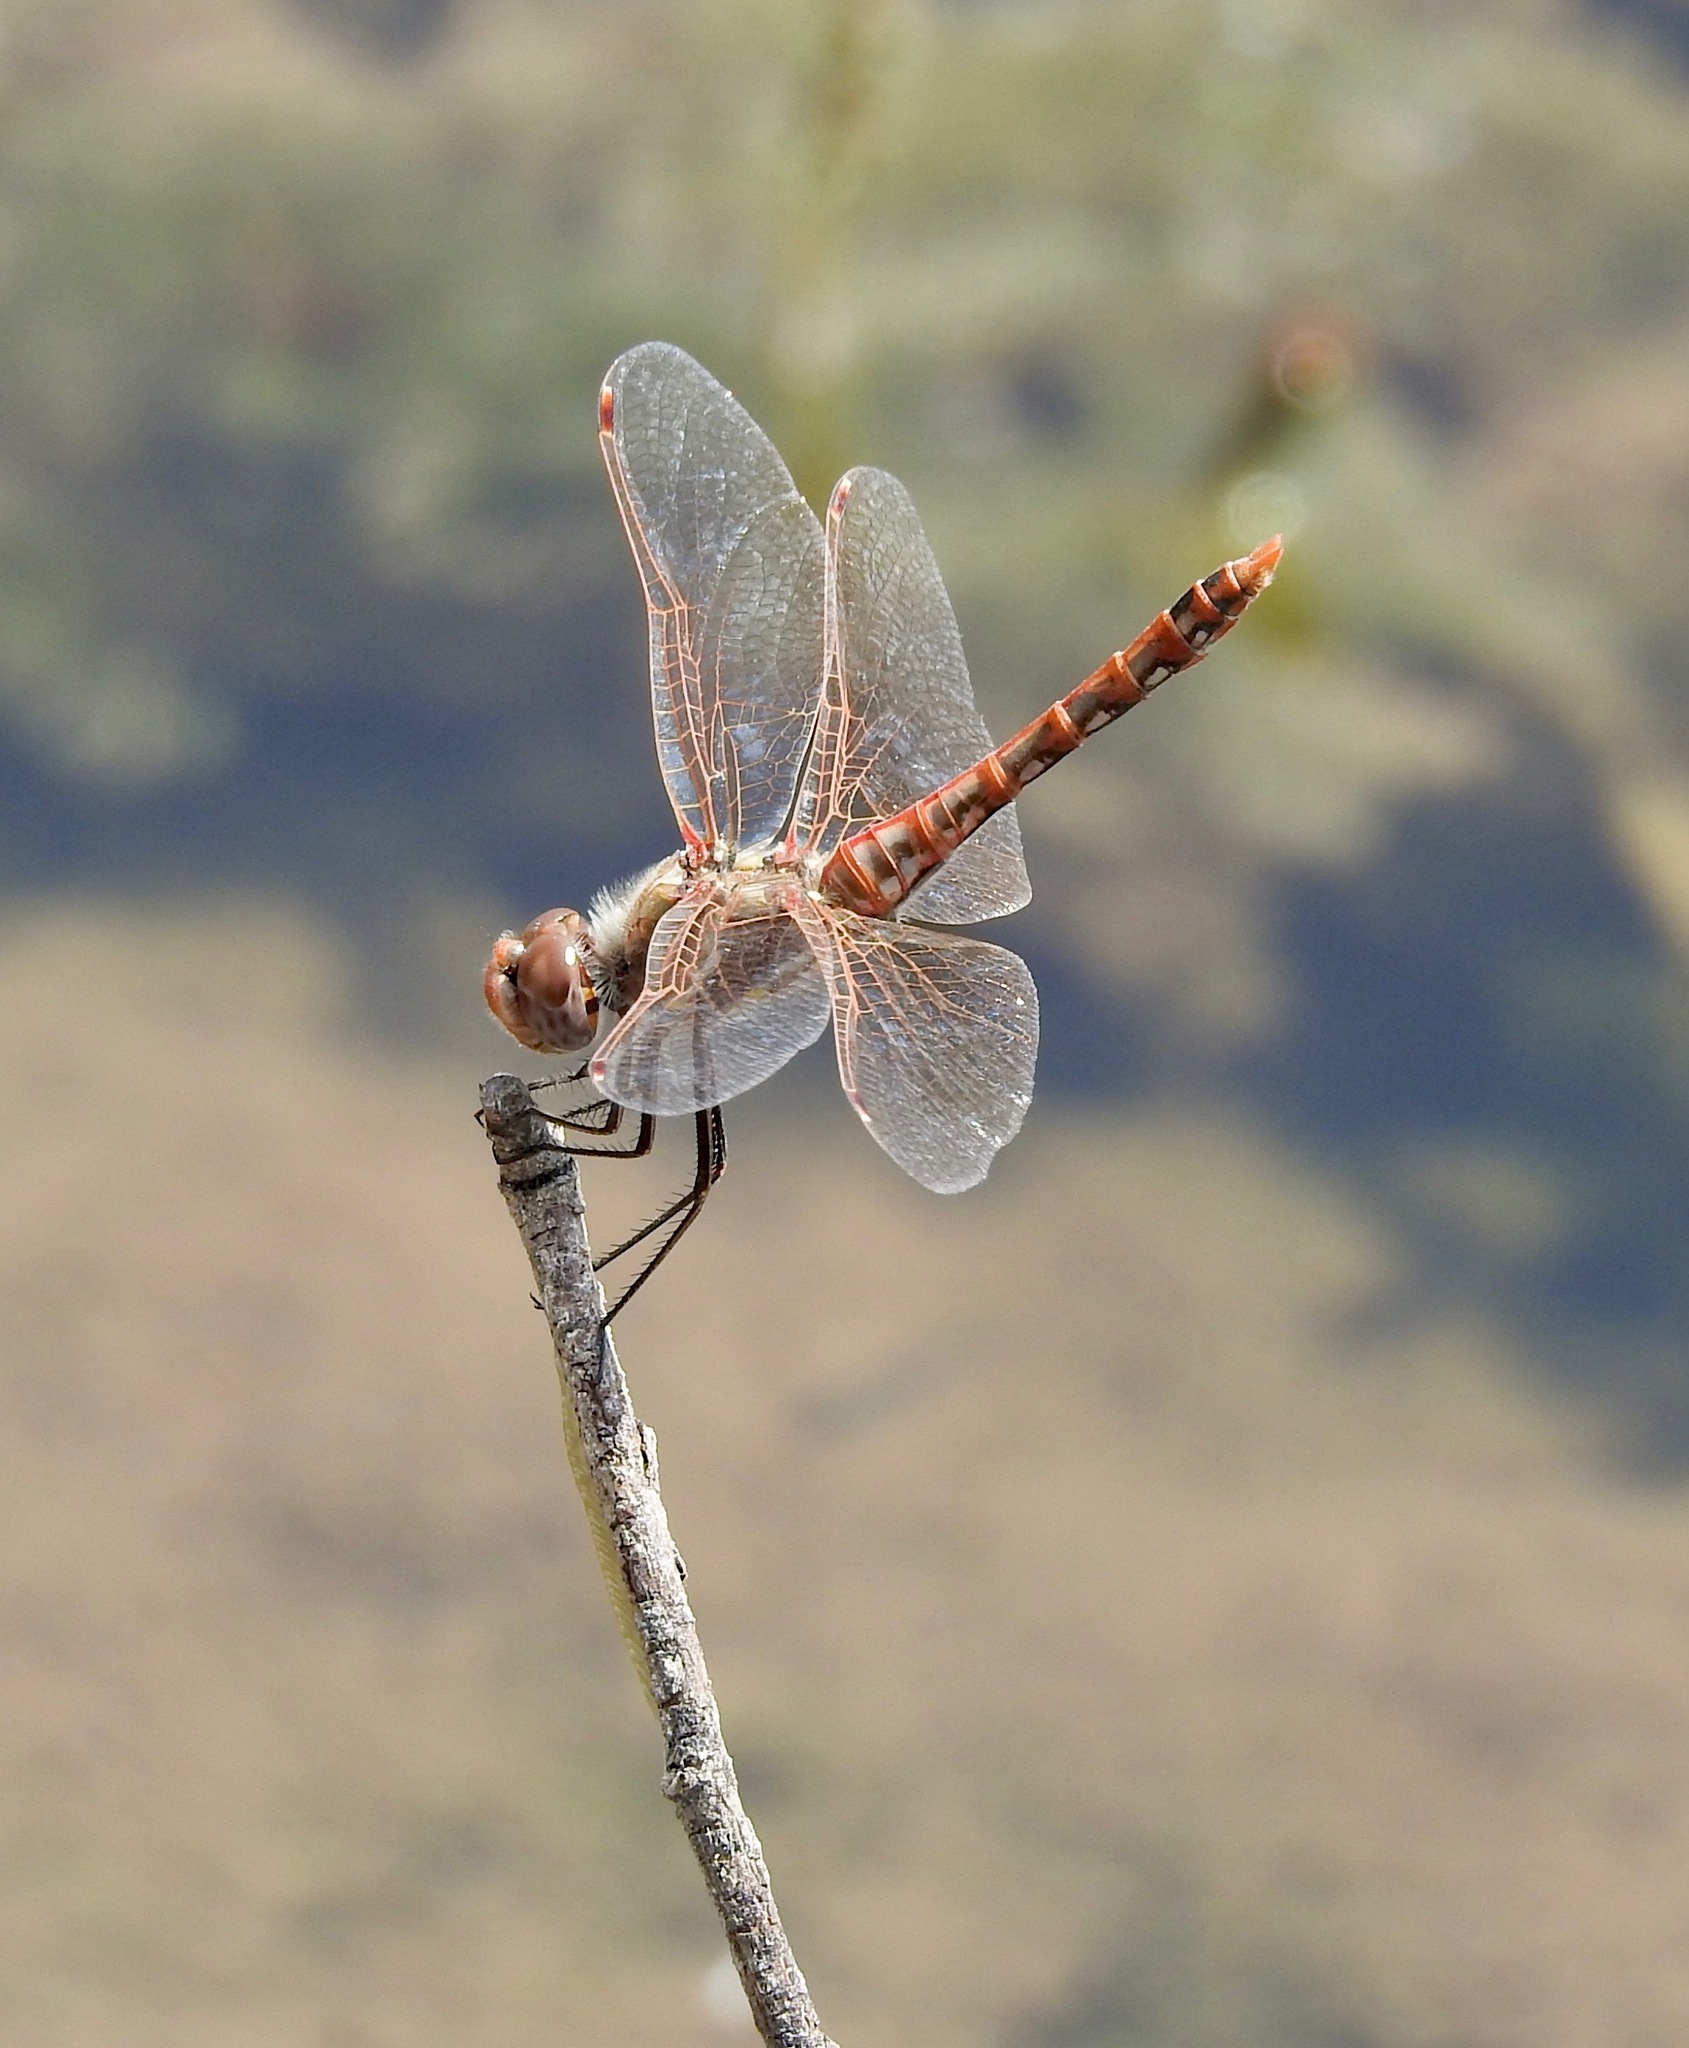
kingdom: Animalia
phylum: Arthropoda
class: Insecta
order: Odonata
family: Libellulidae
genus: Sympetrum
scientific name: Sympetrum corruptum
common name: Variegated meadowhawk
